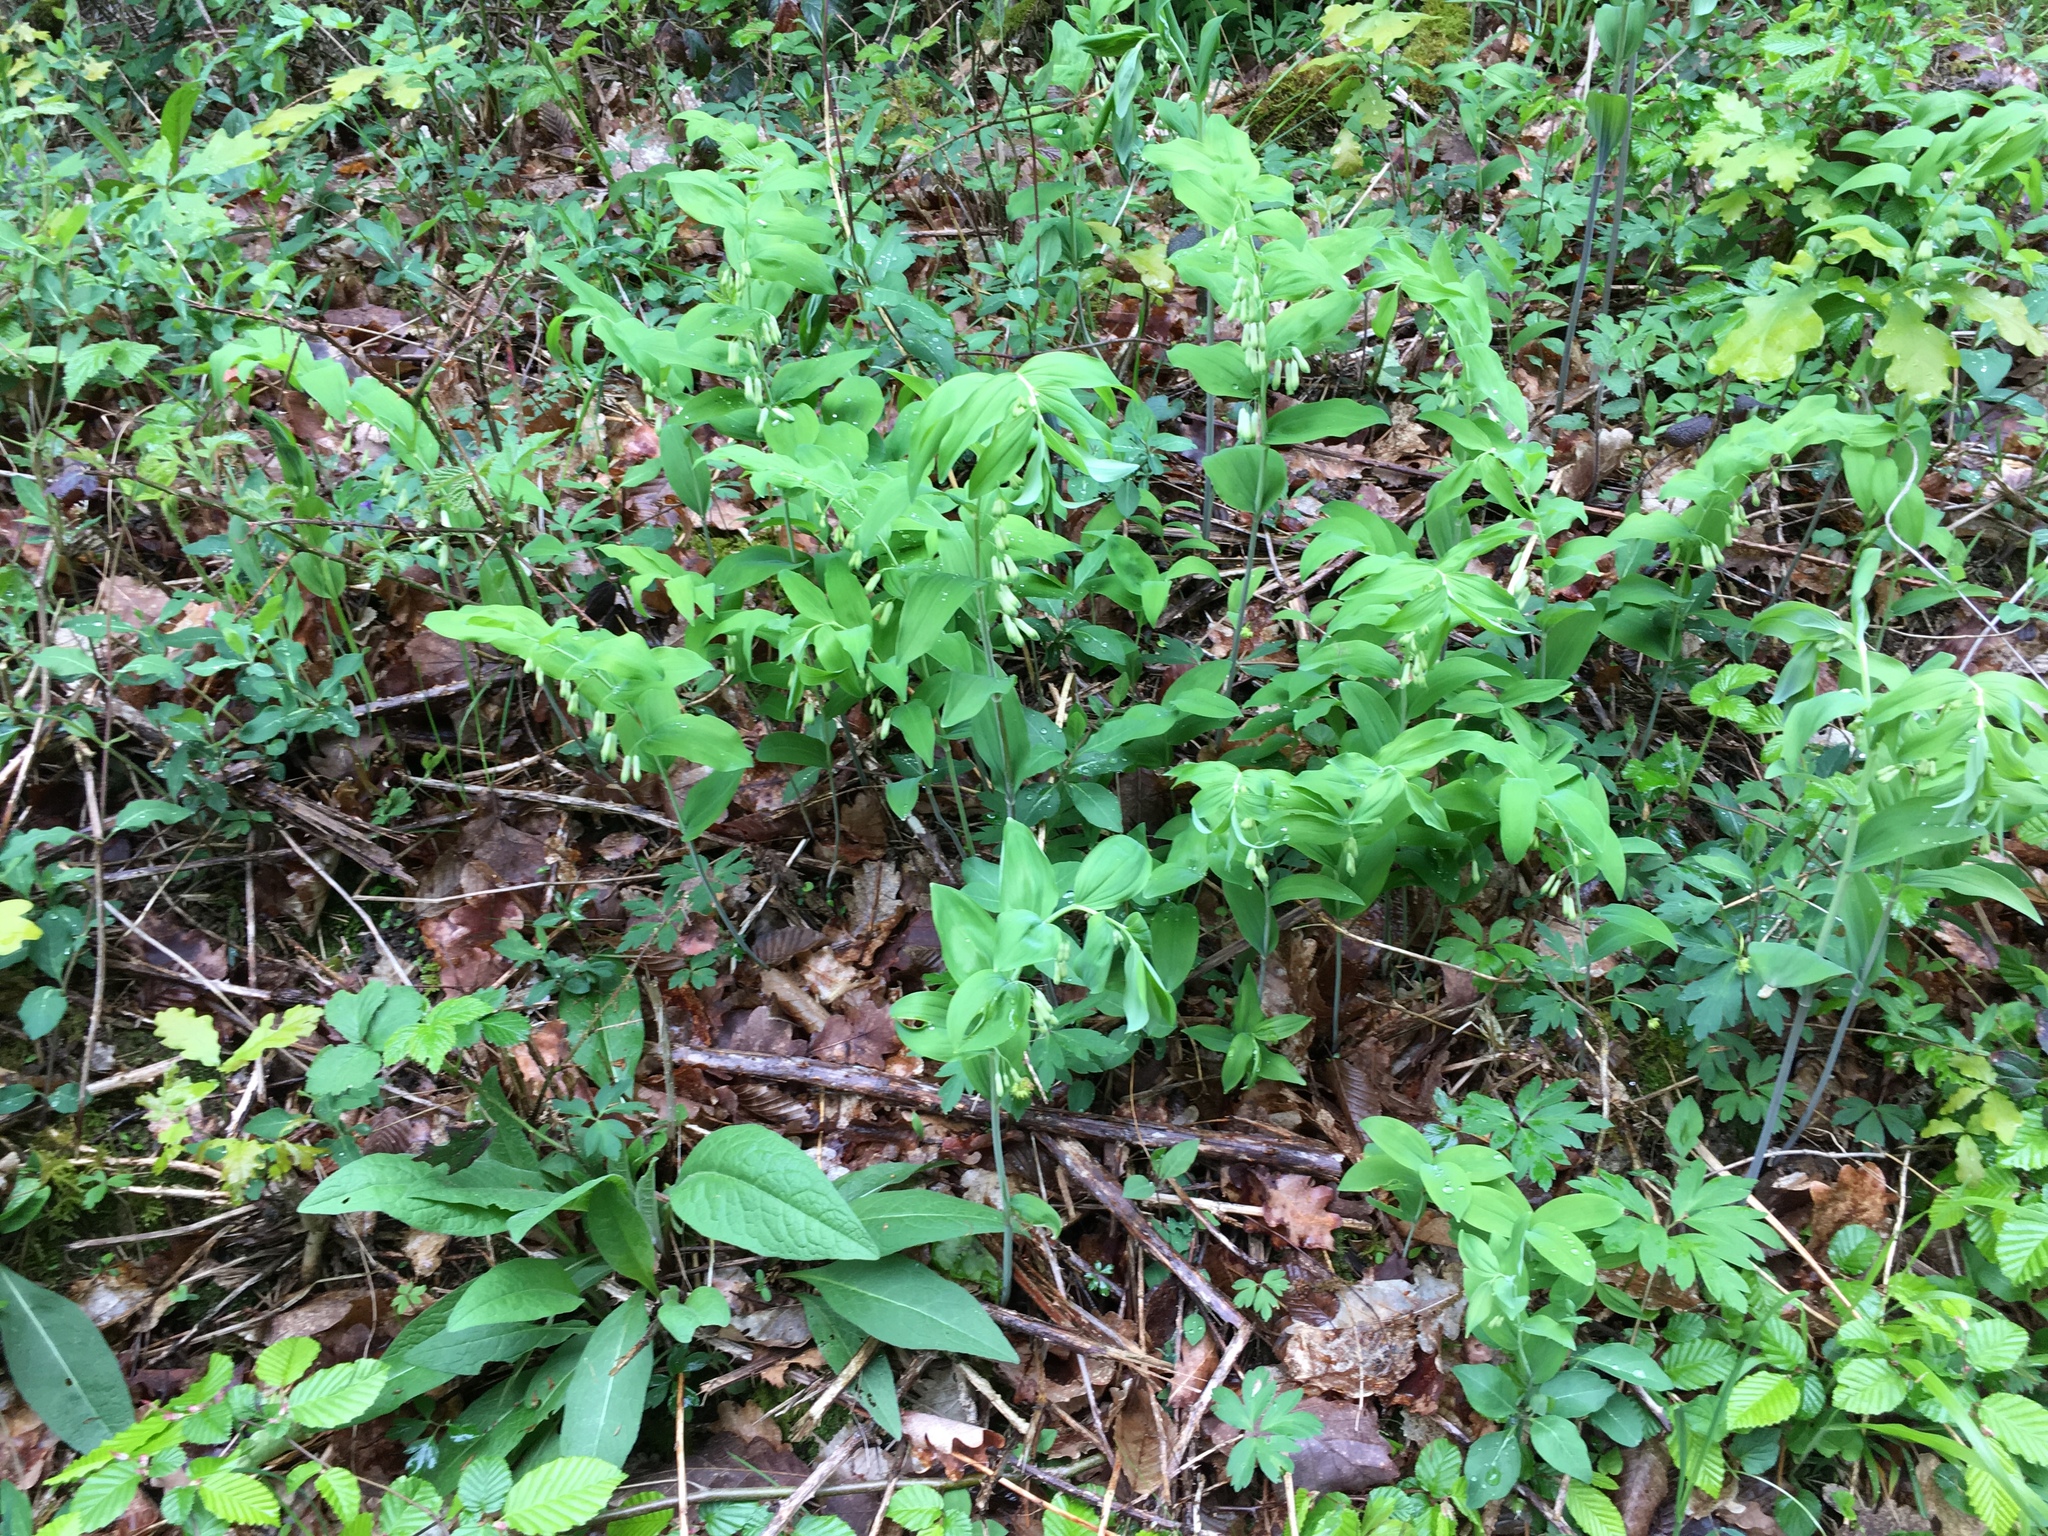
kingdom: Plantae
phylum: Tracheophyta
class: Liliopsida
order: Asparagales
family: Asparagaceae
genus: Polygonatum
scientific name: Polygonatum multiflorum
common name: Solomon's-seal
